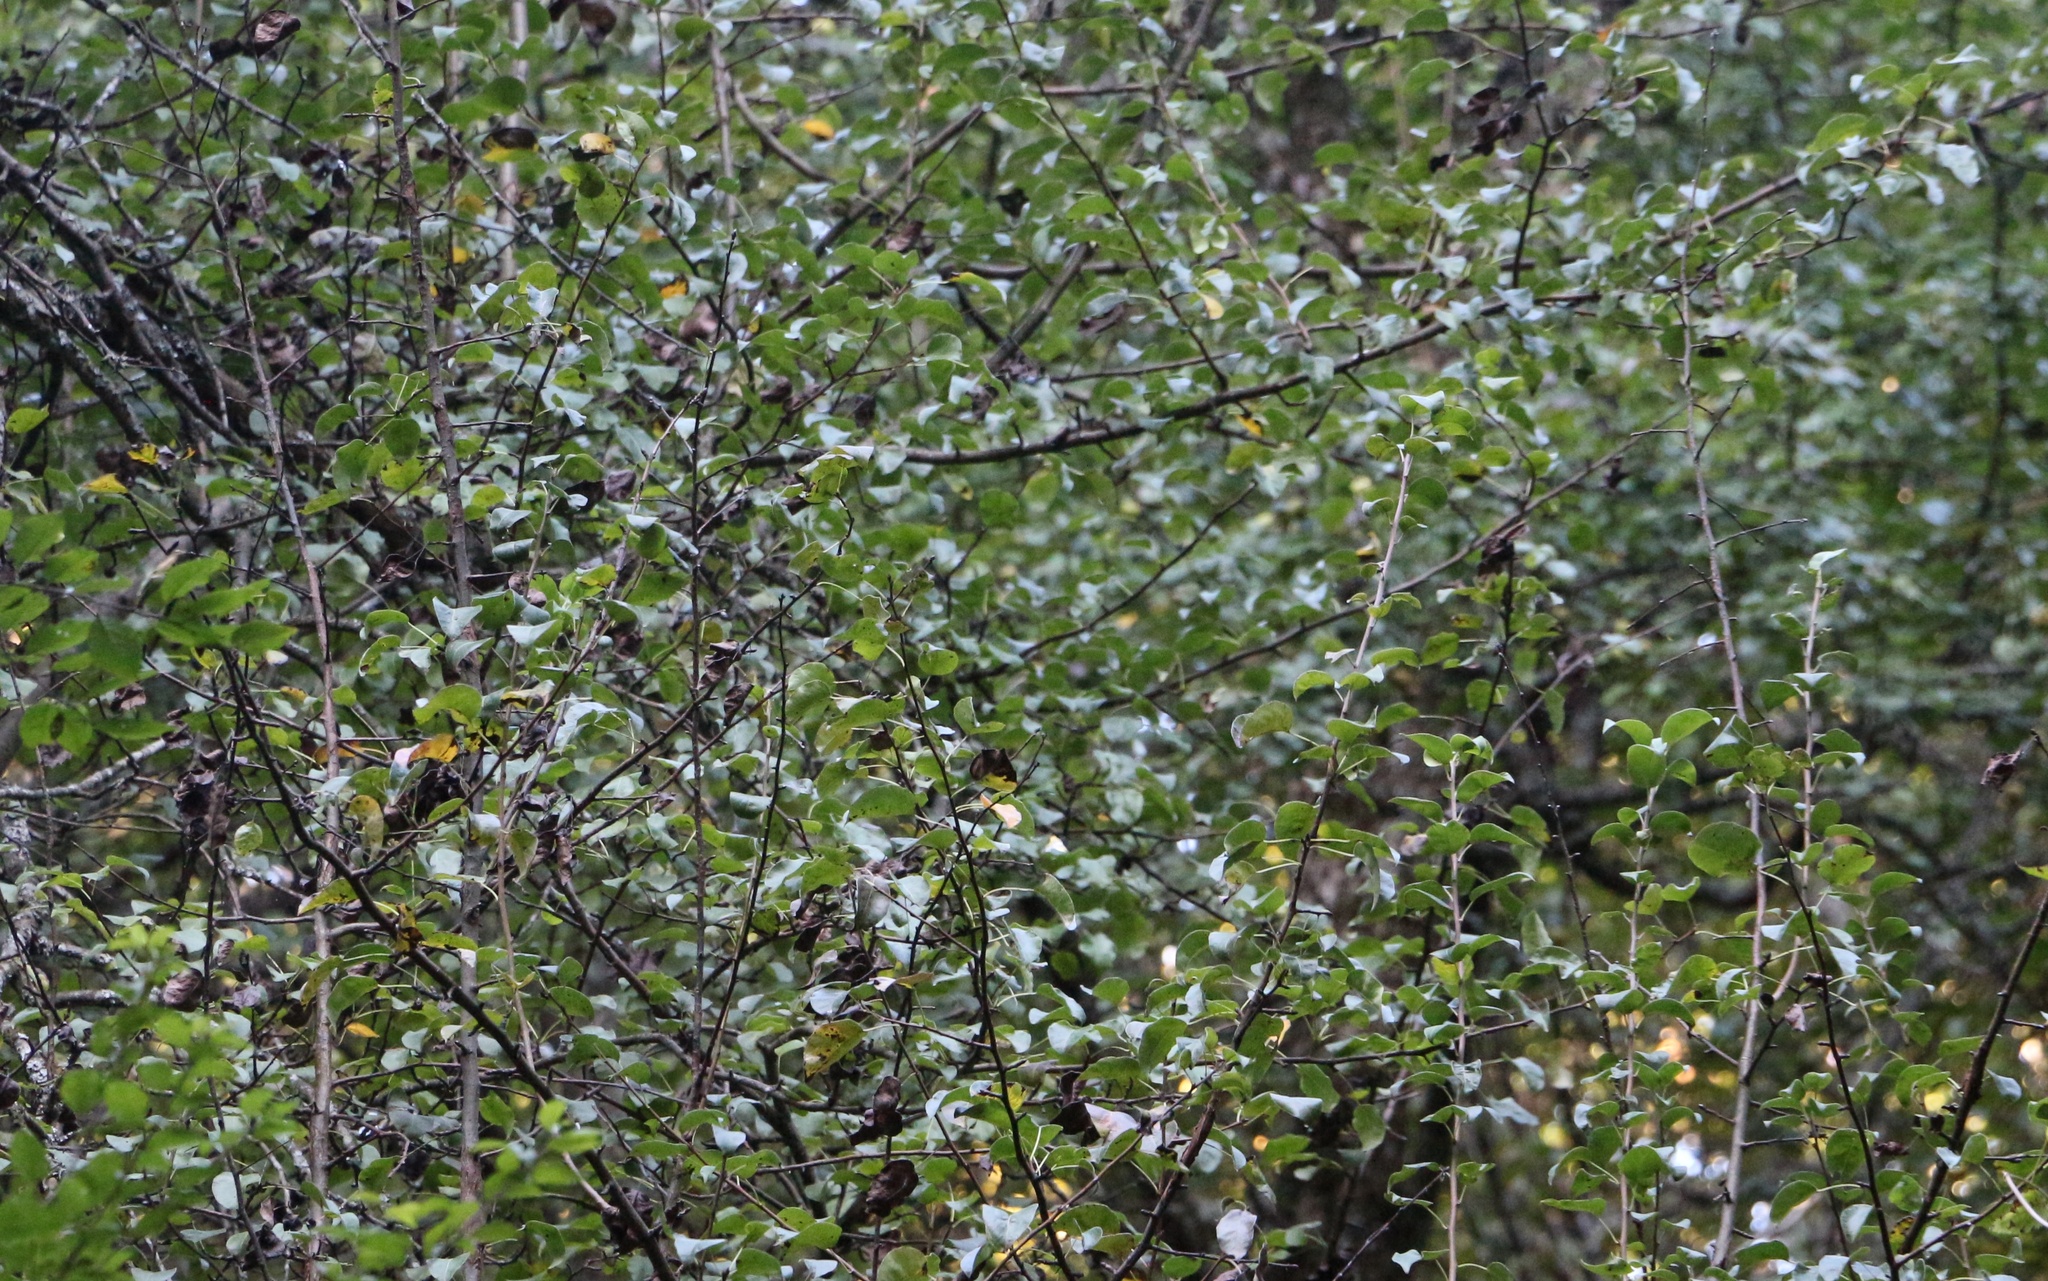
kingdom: Plantae
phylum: Tracheophyta
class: Magnoliopsida
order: Rosales
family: Rosaceae
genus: Pyrus
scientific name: Pyrus communis
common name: Pear
